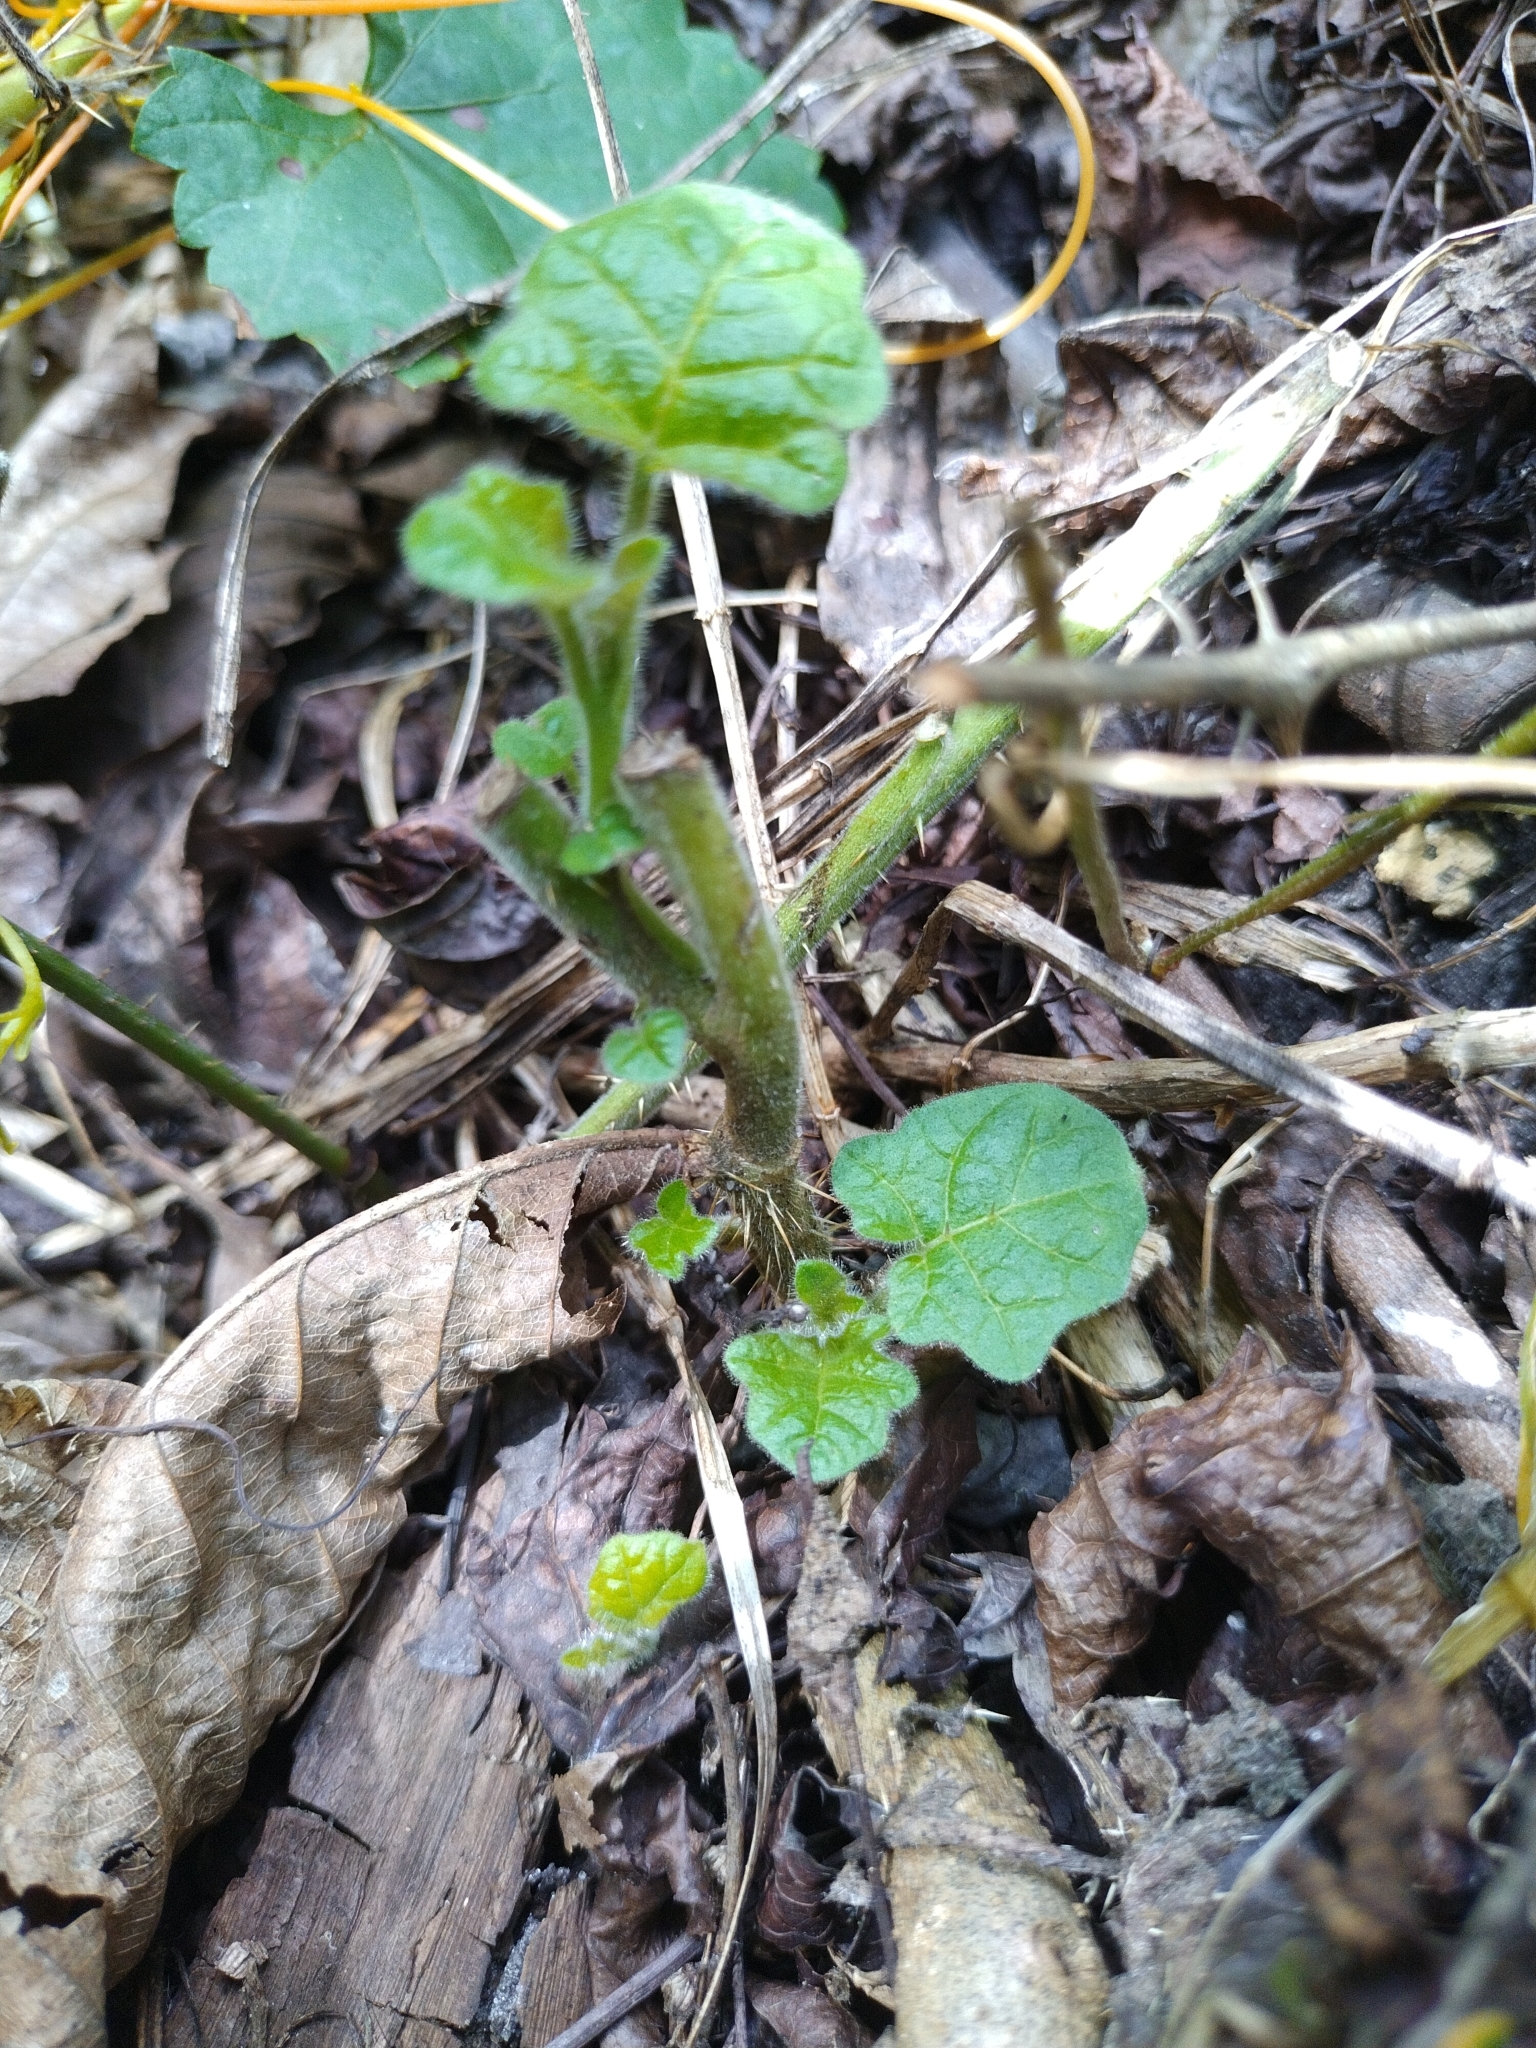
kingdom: Plantae
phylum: Tracheophyta
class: Magnoliopsida
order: Solanales
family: Solanaceae
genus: Solanum
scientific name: Solanum viarum
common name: Tropical soda apple
